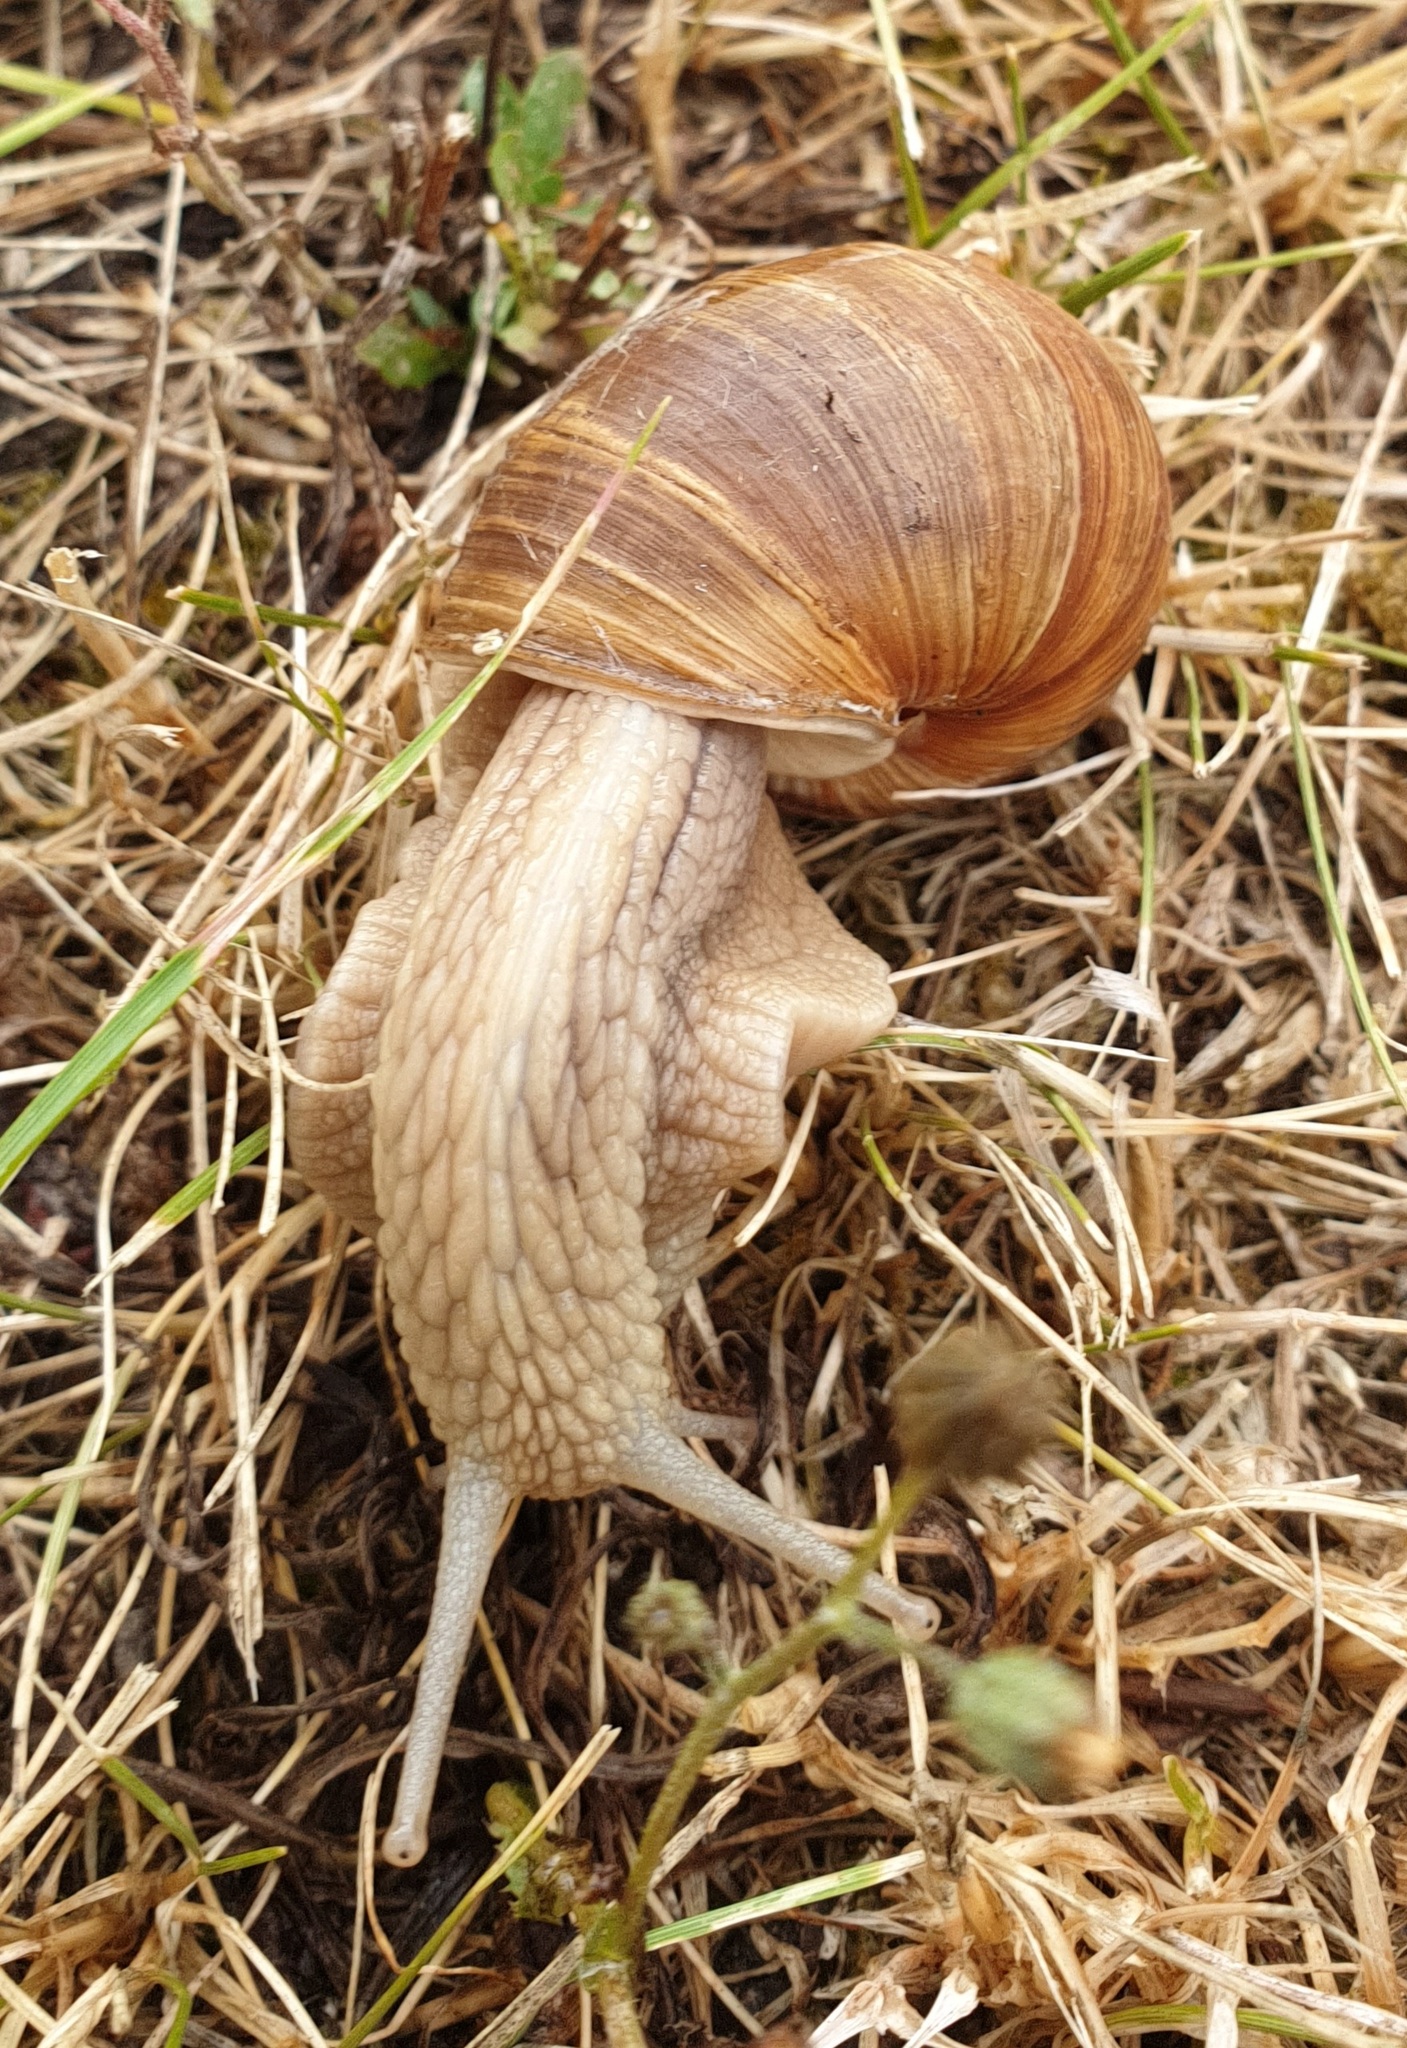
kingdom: Animalia
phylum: Mollusca
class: Gastropoda
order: Stylommatophora
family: Helicidae
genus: Helix
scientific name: Helix pomatia
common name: Roman snail
